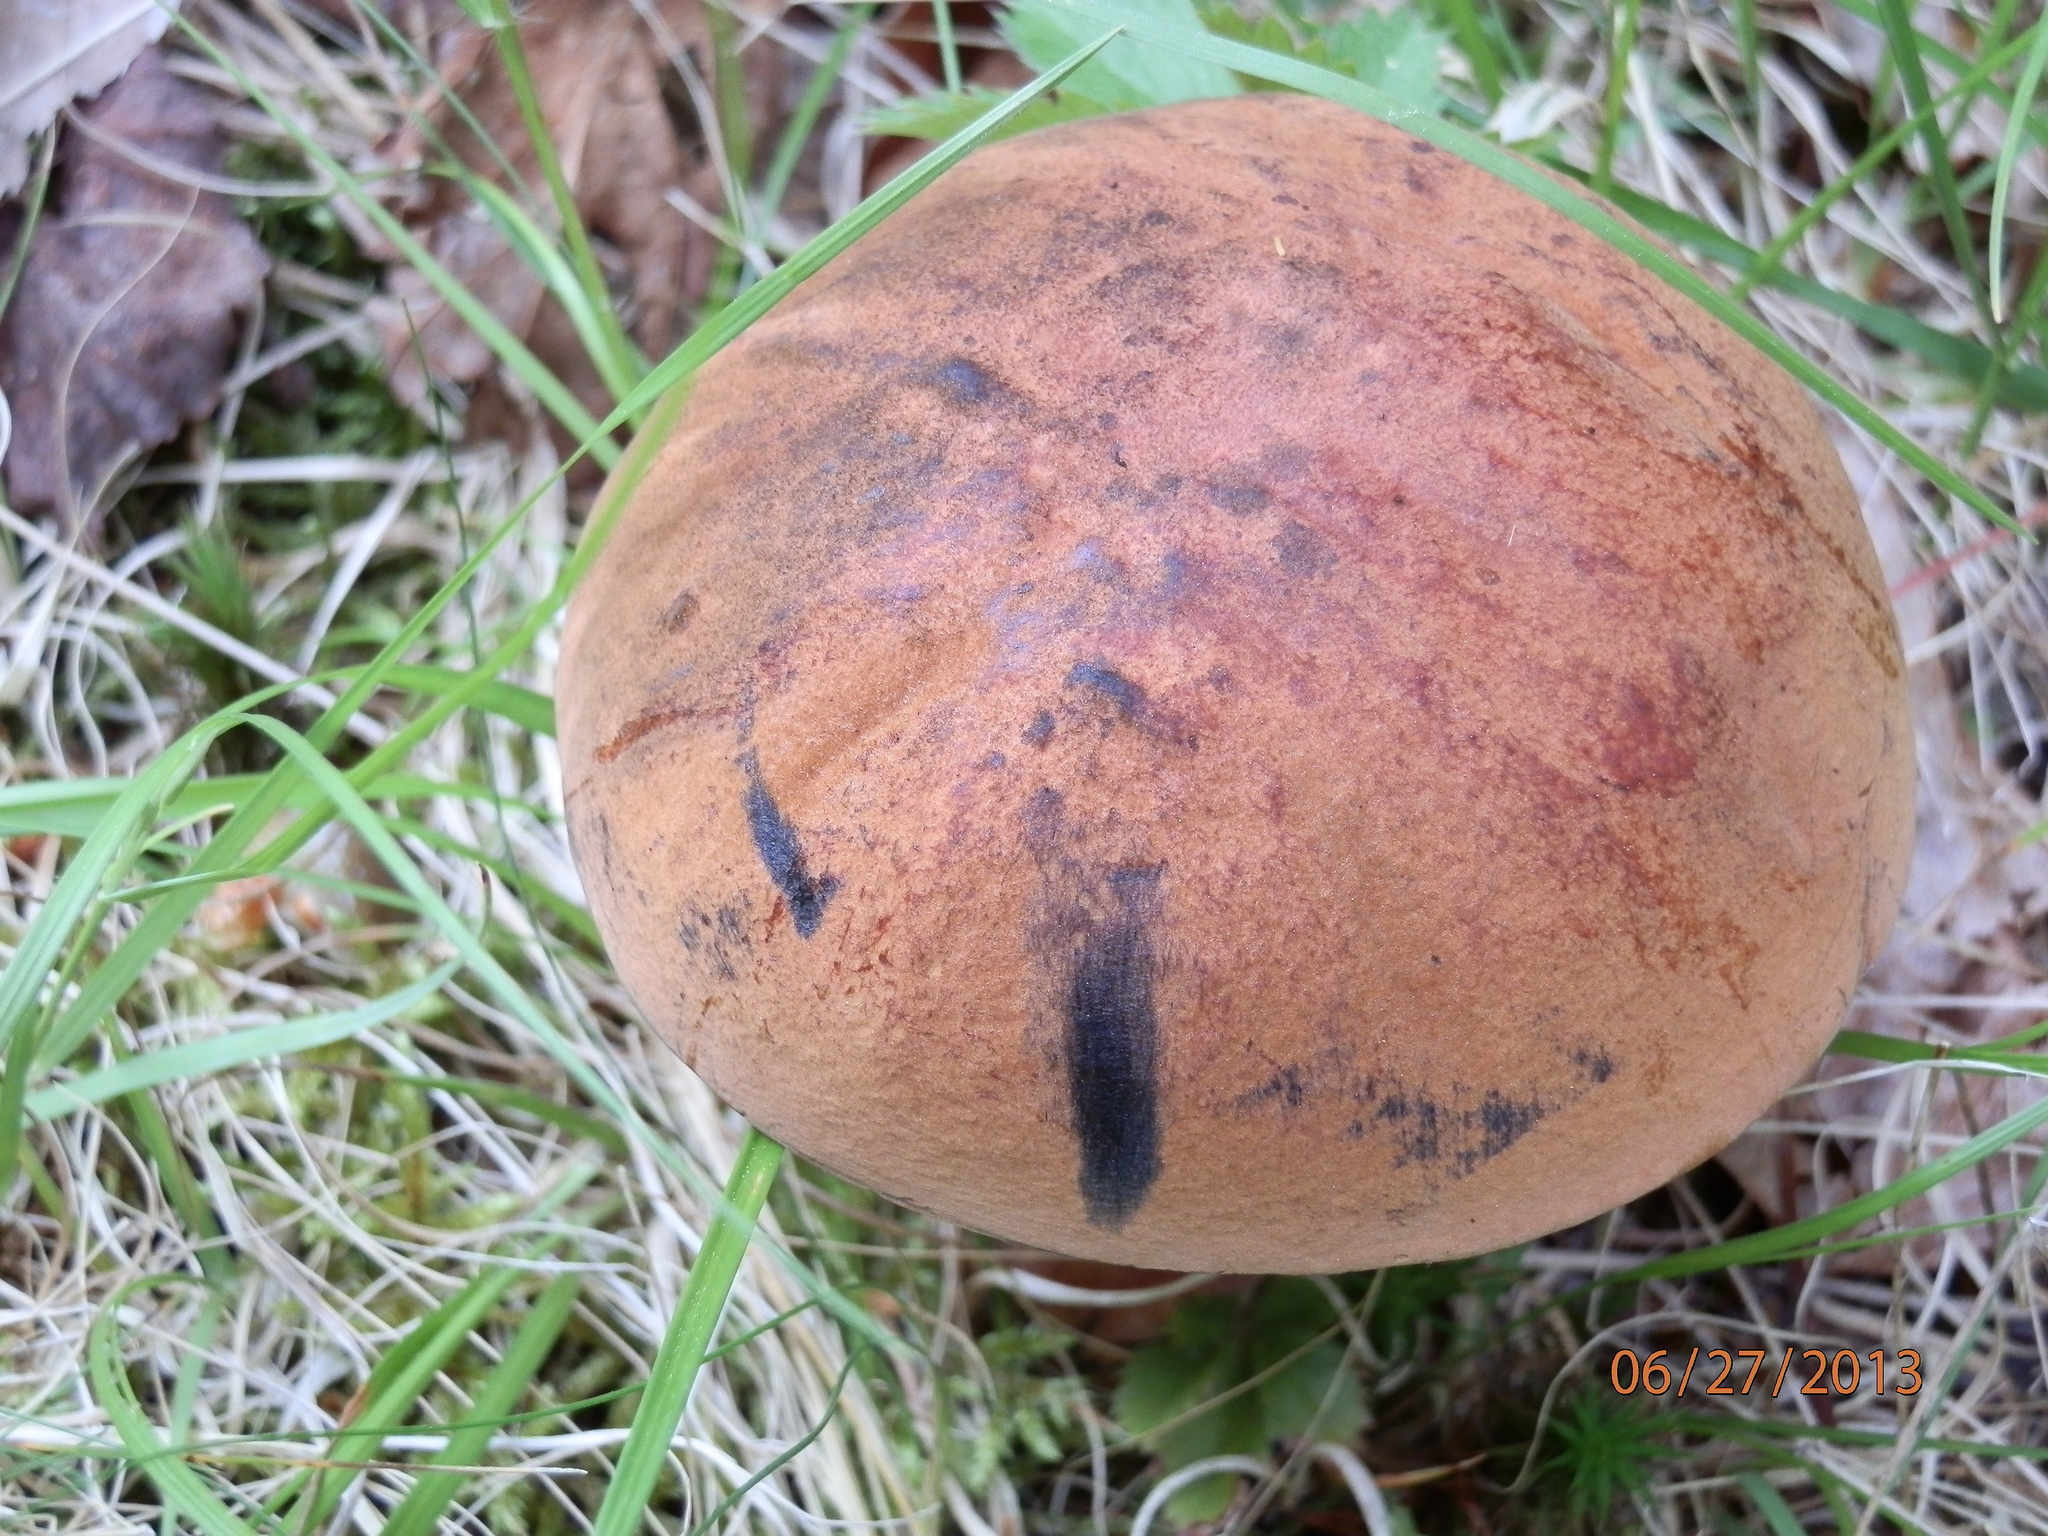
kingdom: Fungi
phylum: Basidiomycota
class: Agaricomycetes
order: Boletales
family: Boletaceae
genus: Boletus
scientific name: Boletus subvelutipes
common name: Red-mouth bolete
